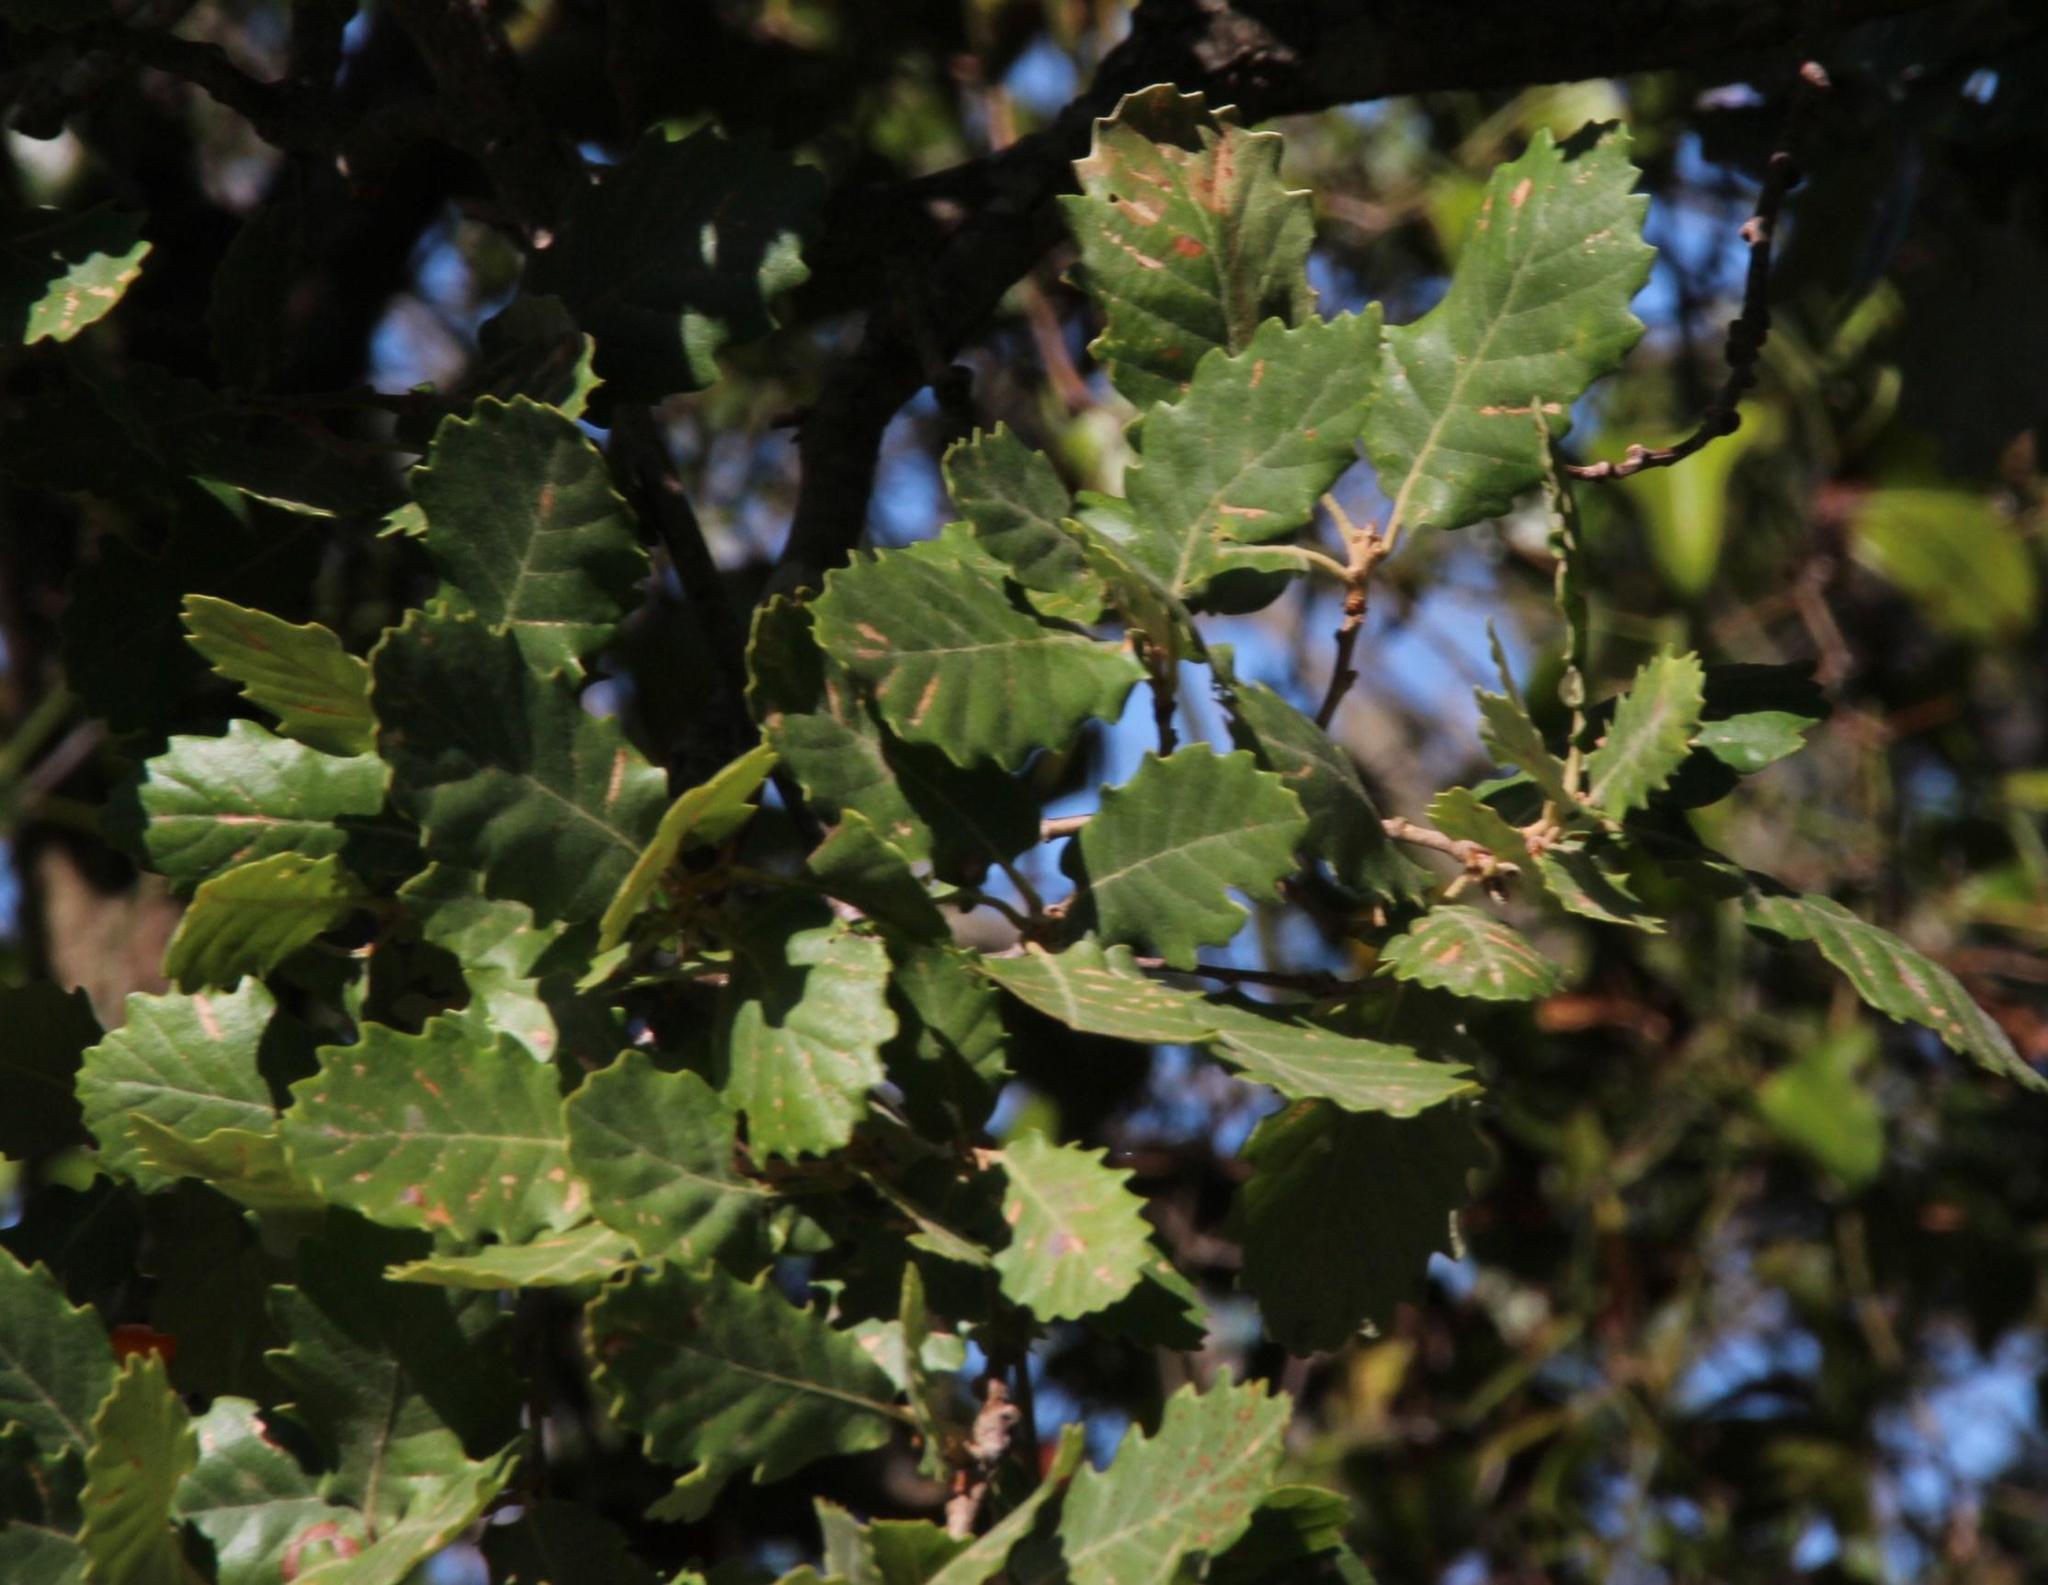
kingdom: Plantae
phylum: Tracheophyta
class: Magnoliopsida
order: Fagales
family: Fagaceae
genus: Quercus
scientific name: Quercus faginea
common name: Gall oak tree
